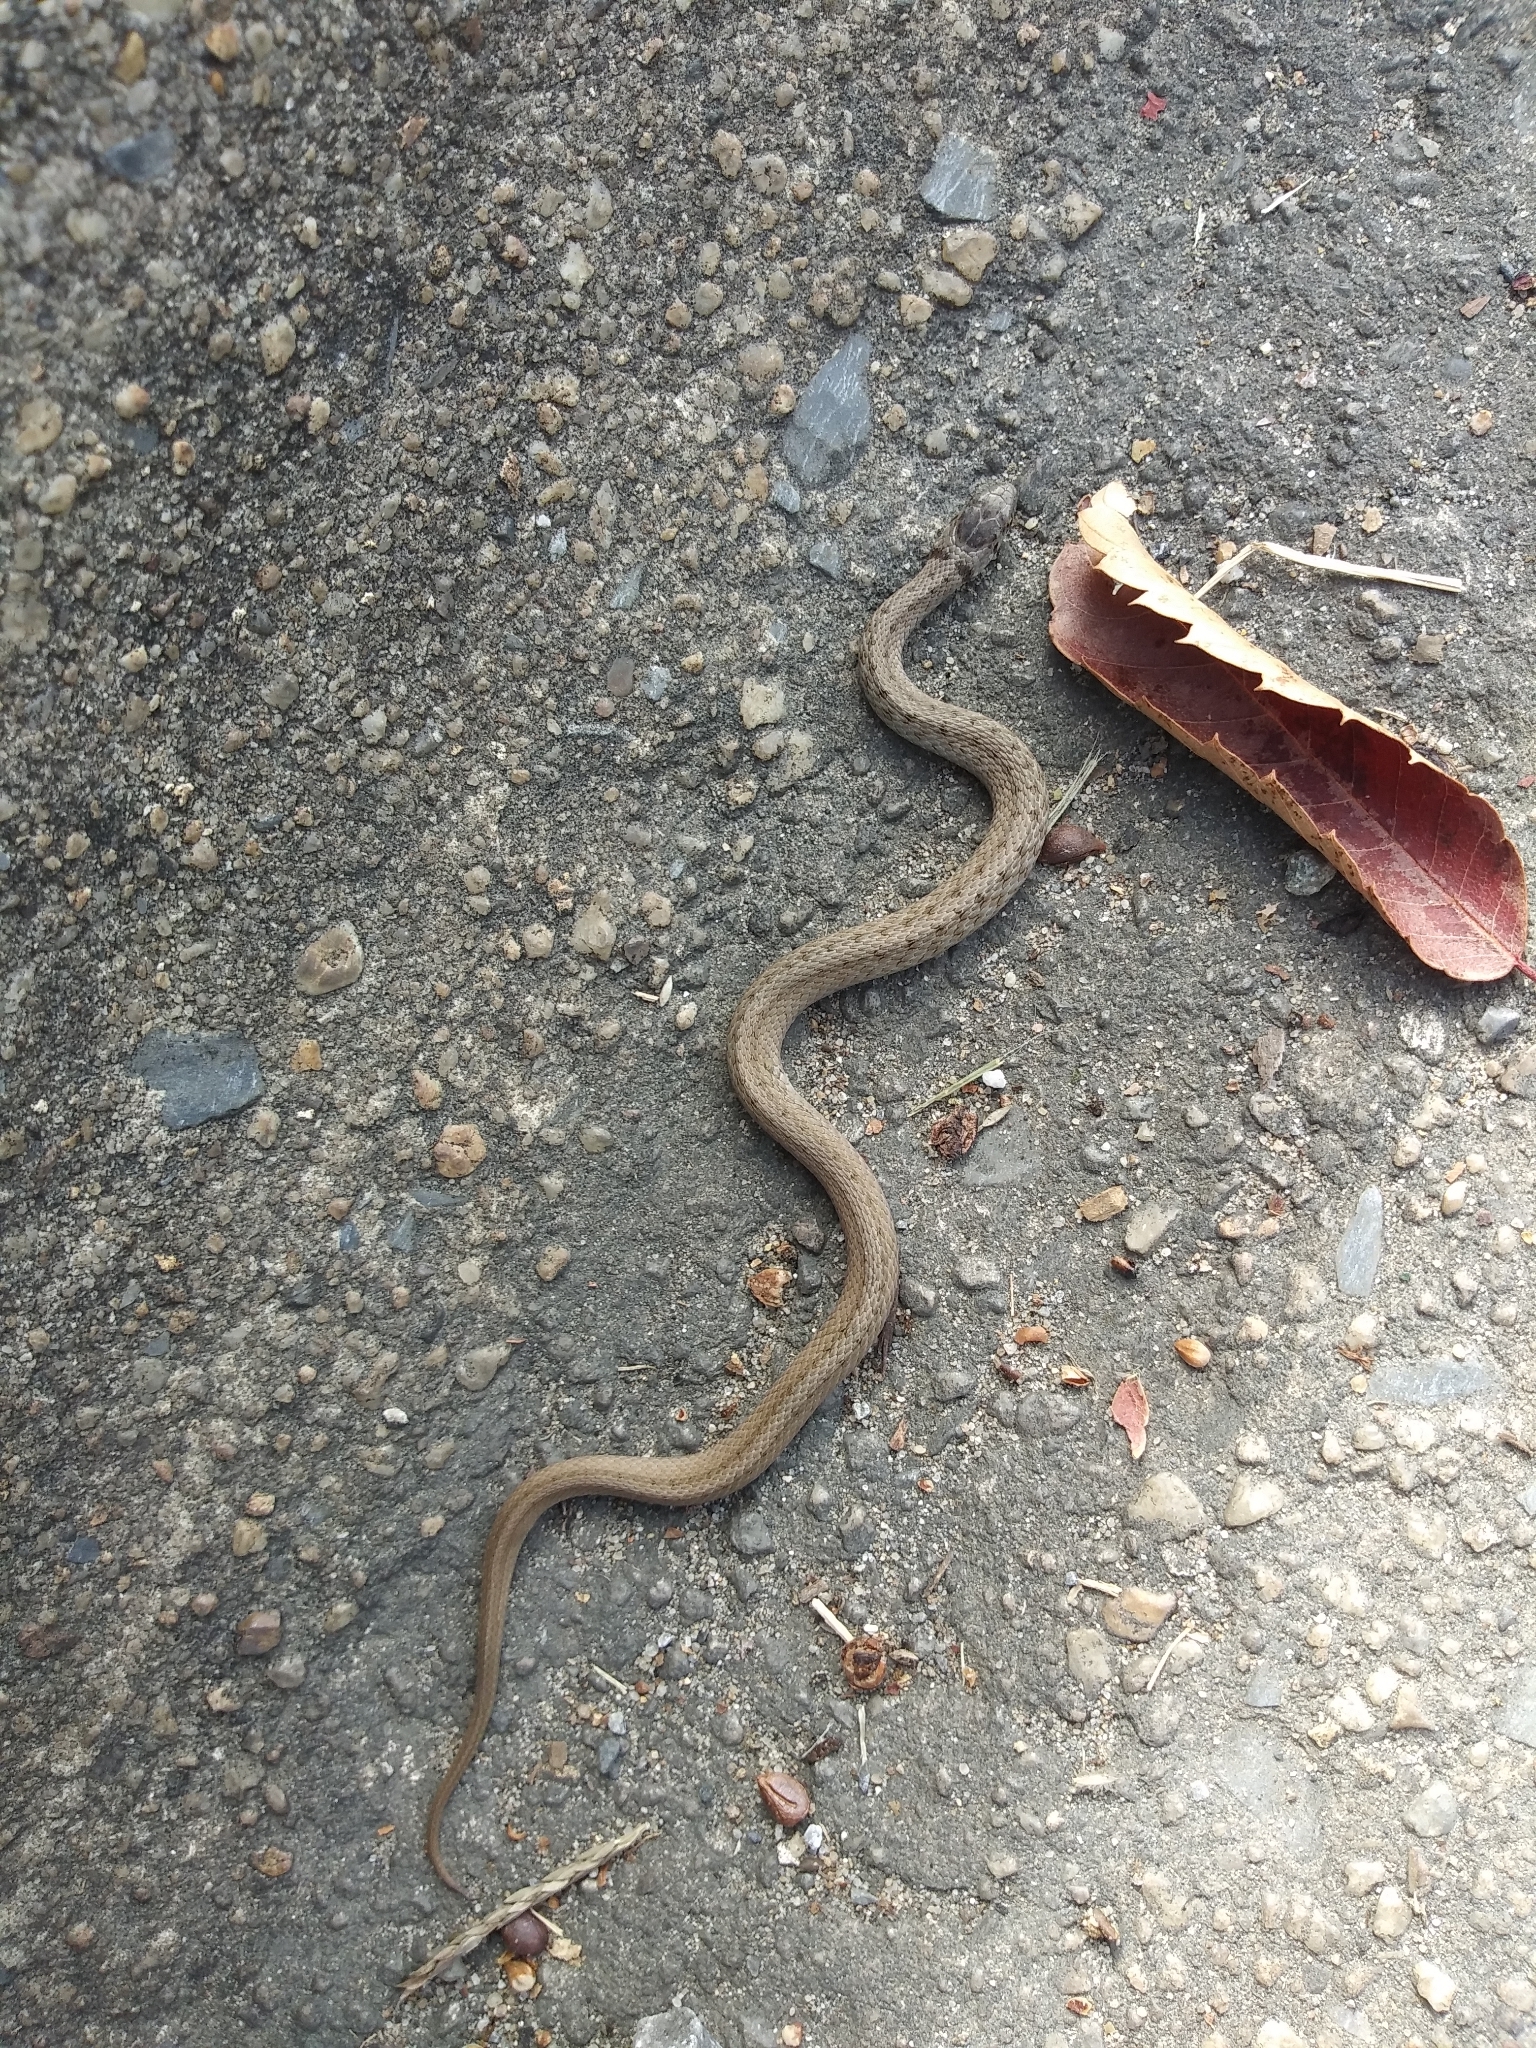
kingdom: Animalia
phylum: Chordata
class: Squamata
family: Colubridae
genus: Storeria
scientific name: Storeria dekayi
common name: (dekay’s) brown snake
